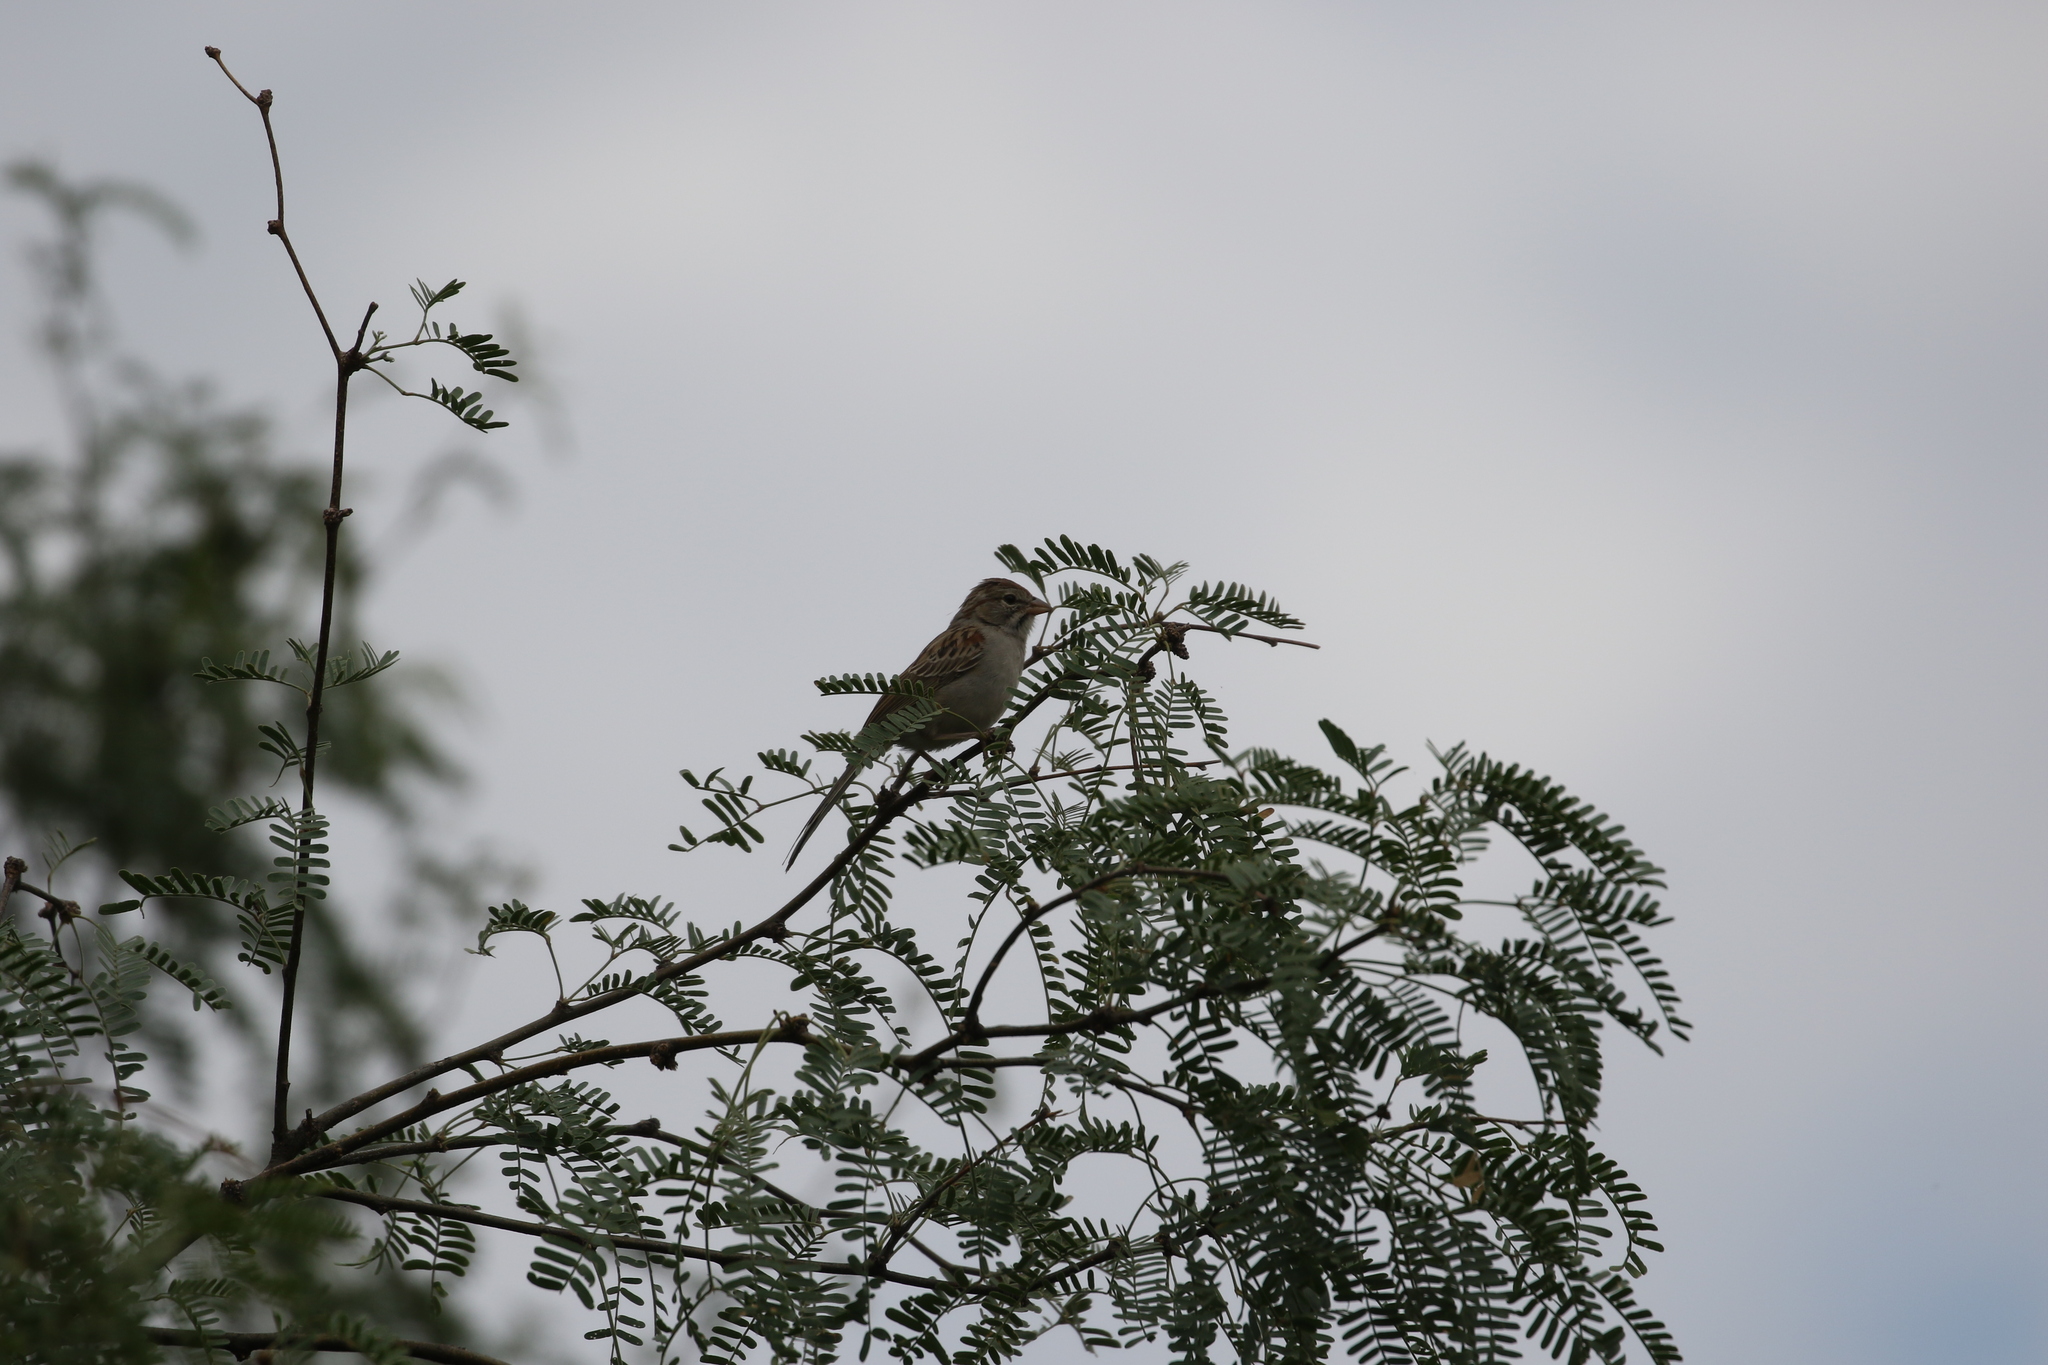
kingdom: Animalia
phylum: Chordata
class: Aves
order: Passeriformes
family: Passerellidae
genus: Peucaea
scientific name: Peucaea carpalis
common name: Rufous-winged sparrow
